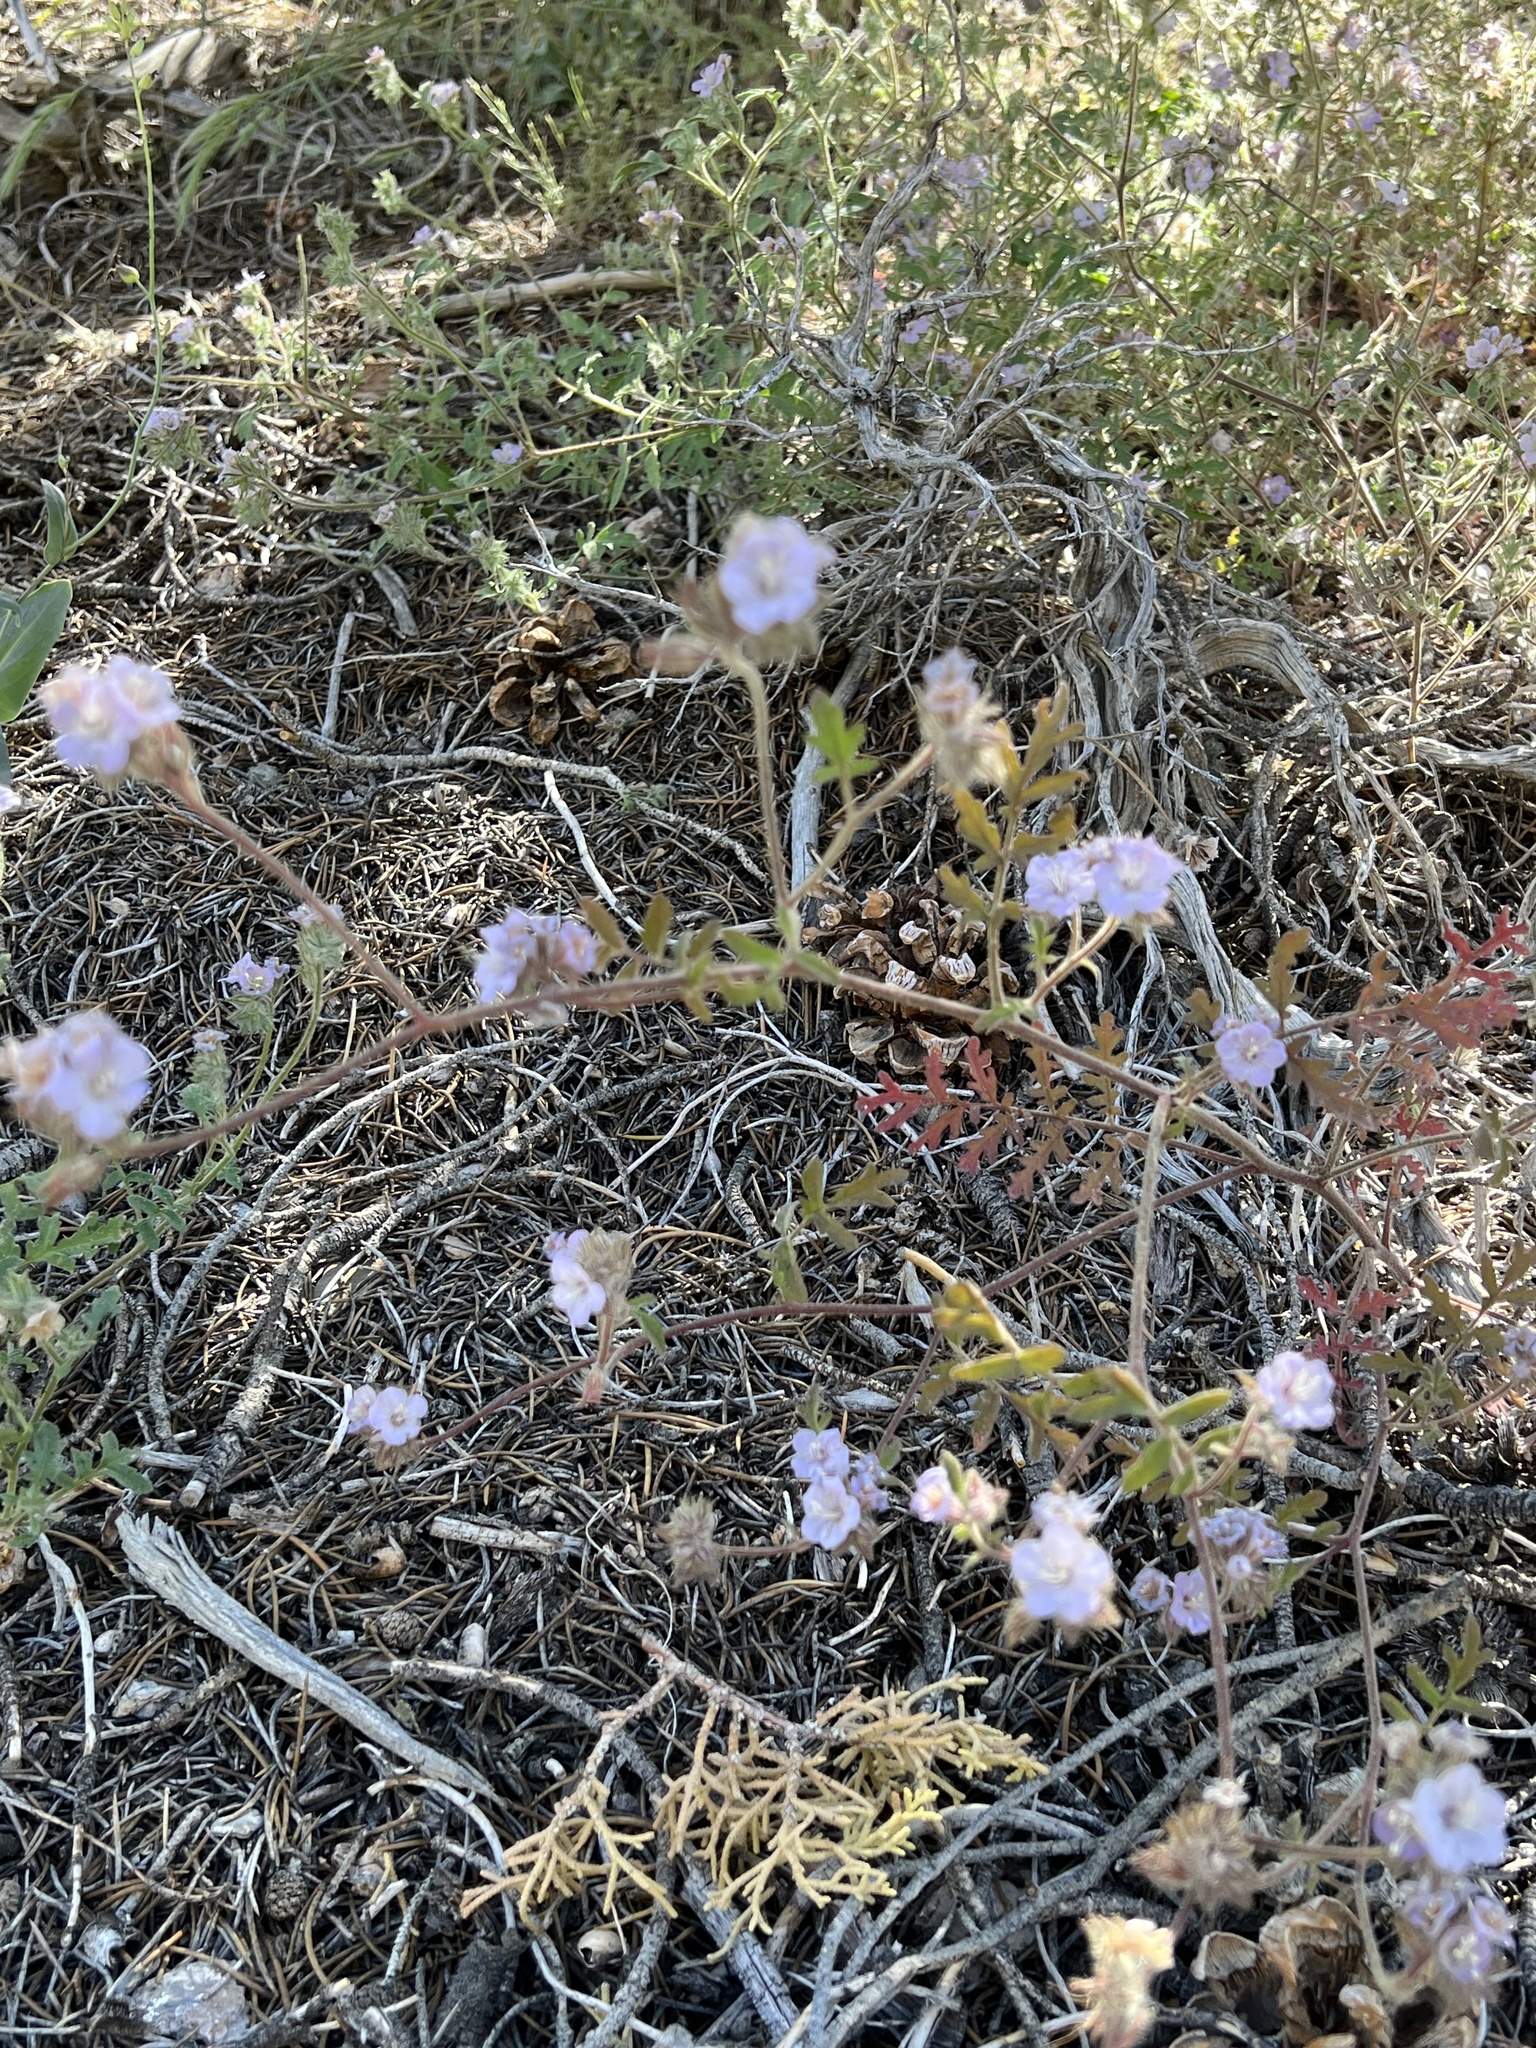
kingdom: Plantae
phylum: Tracheophyta
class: Magnoliopsida
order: Boraginales
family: Hydrophyllaceae
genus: Phacelia
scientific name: Phacelia vallis-mortae
